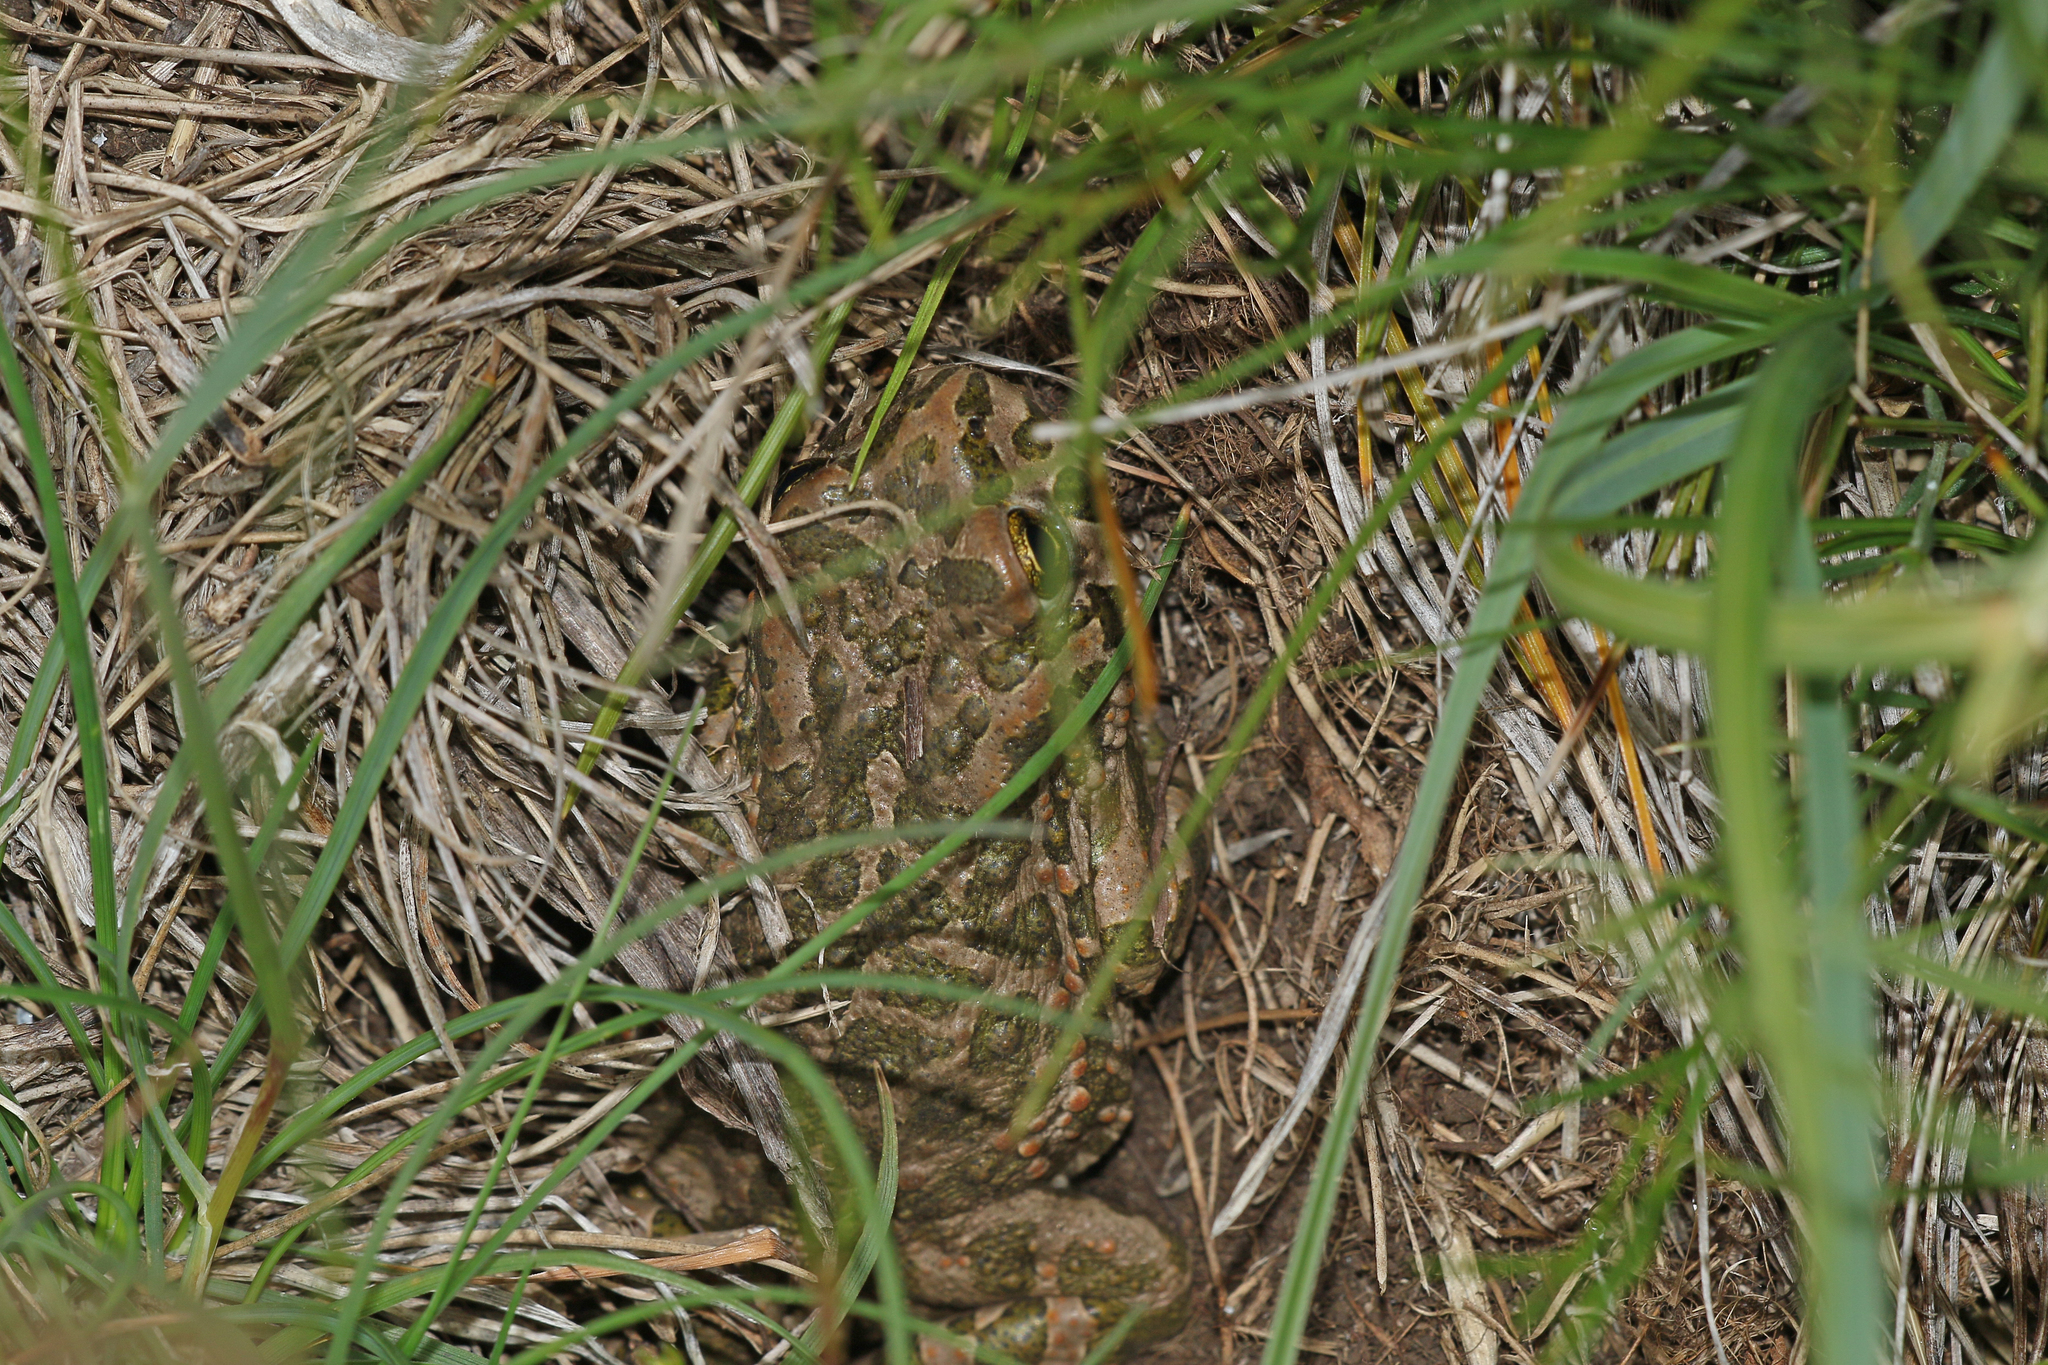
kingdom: Animalia
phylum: Chordata
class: Amphibia
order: Anura
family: Bufonidae
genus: Bufotes
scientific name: Bufotes viridis
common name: European green toad
